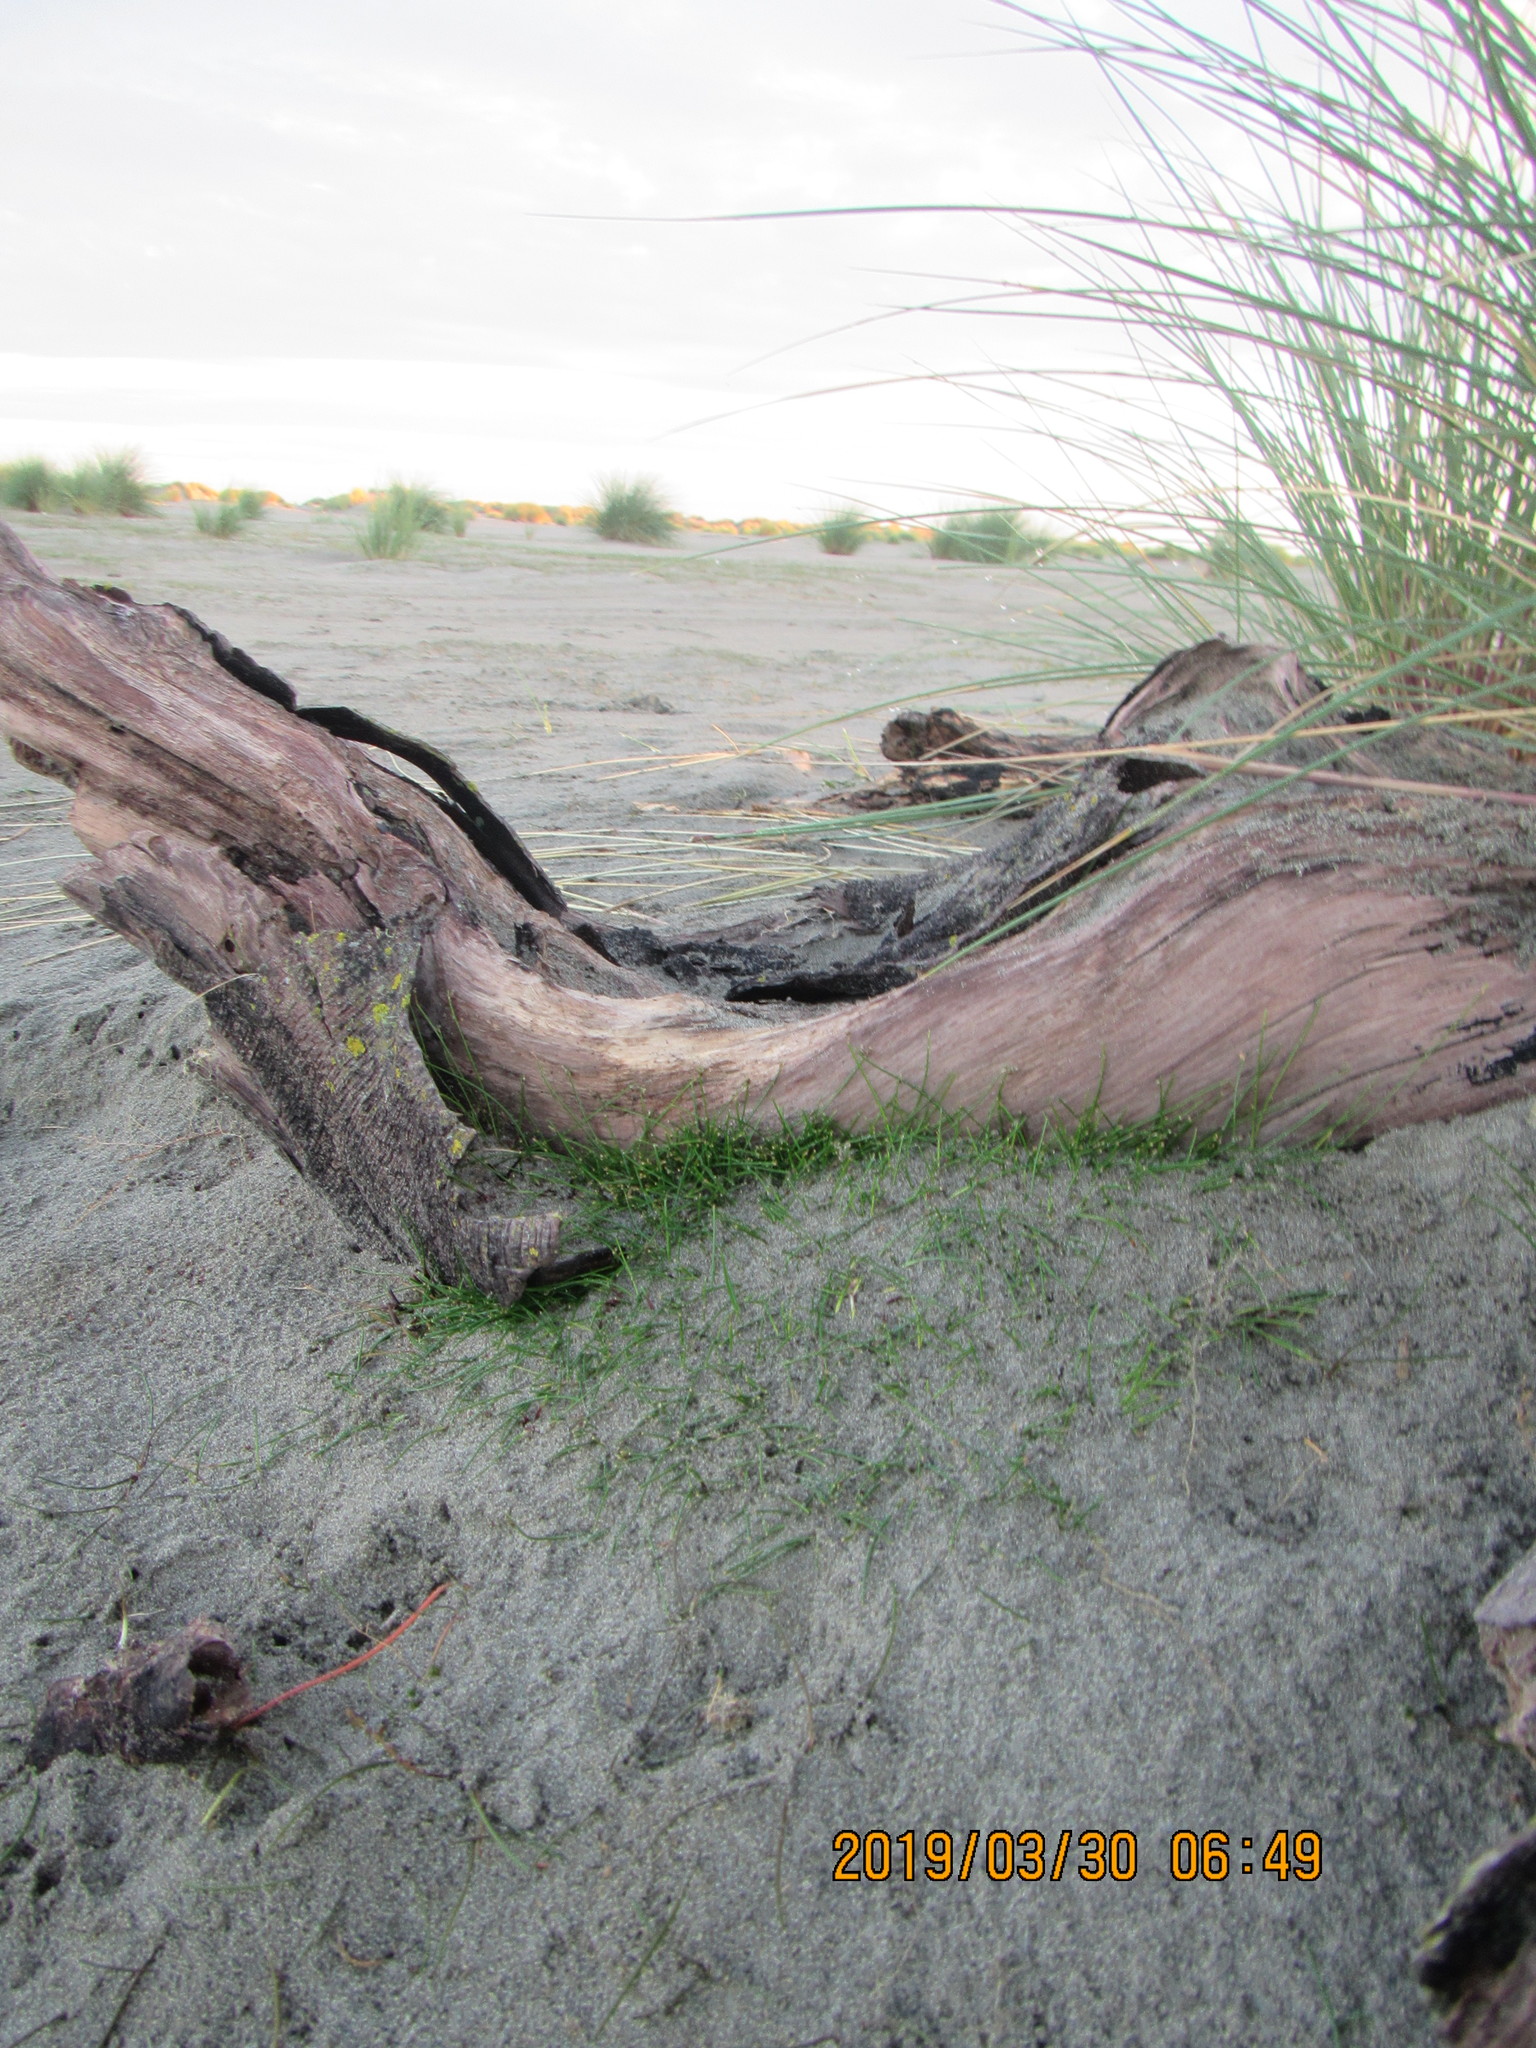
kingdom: Plantae
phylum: Tracheophyta
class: Liliopsida
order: Poales
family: Cyperaceae
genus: Isolepis
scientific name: Isolepis cernua
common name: Slender club-rush
